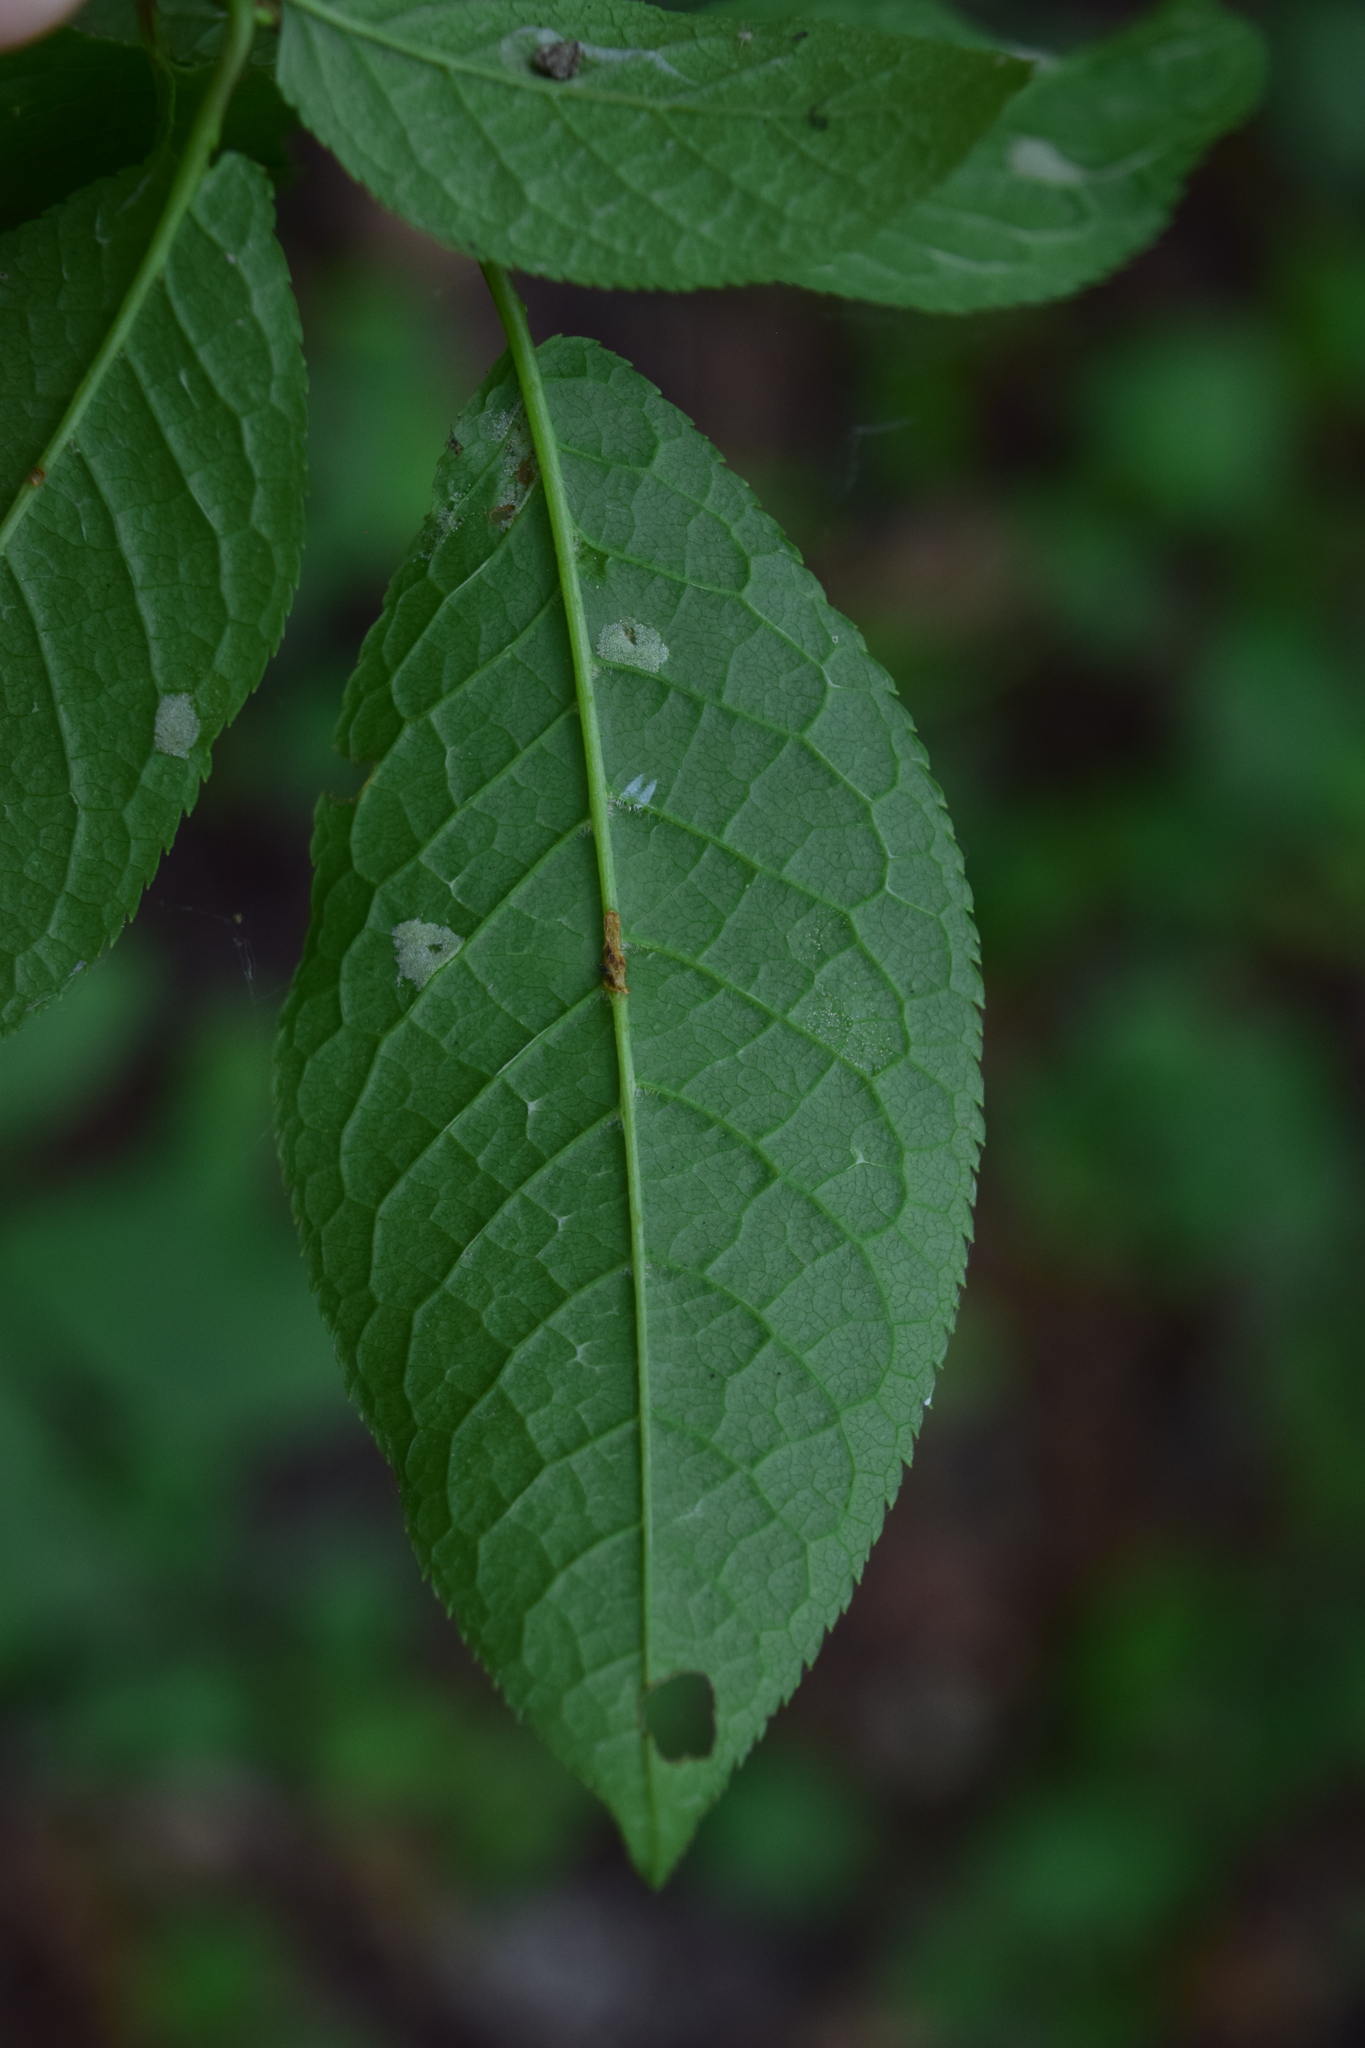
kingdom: Plantae
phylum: Tracheophyta
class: Magnoliopsida
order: Rosales
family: Rosaceae
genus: Prunus
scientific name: Prunus padus
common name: Bird cherry
